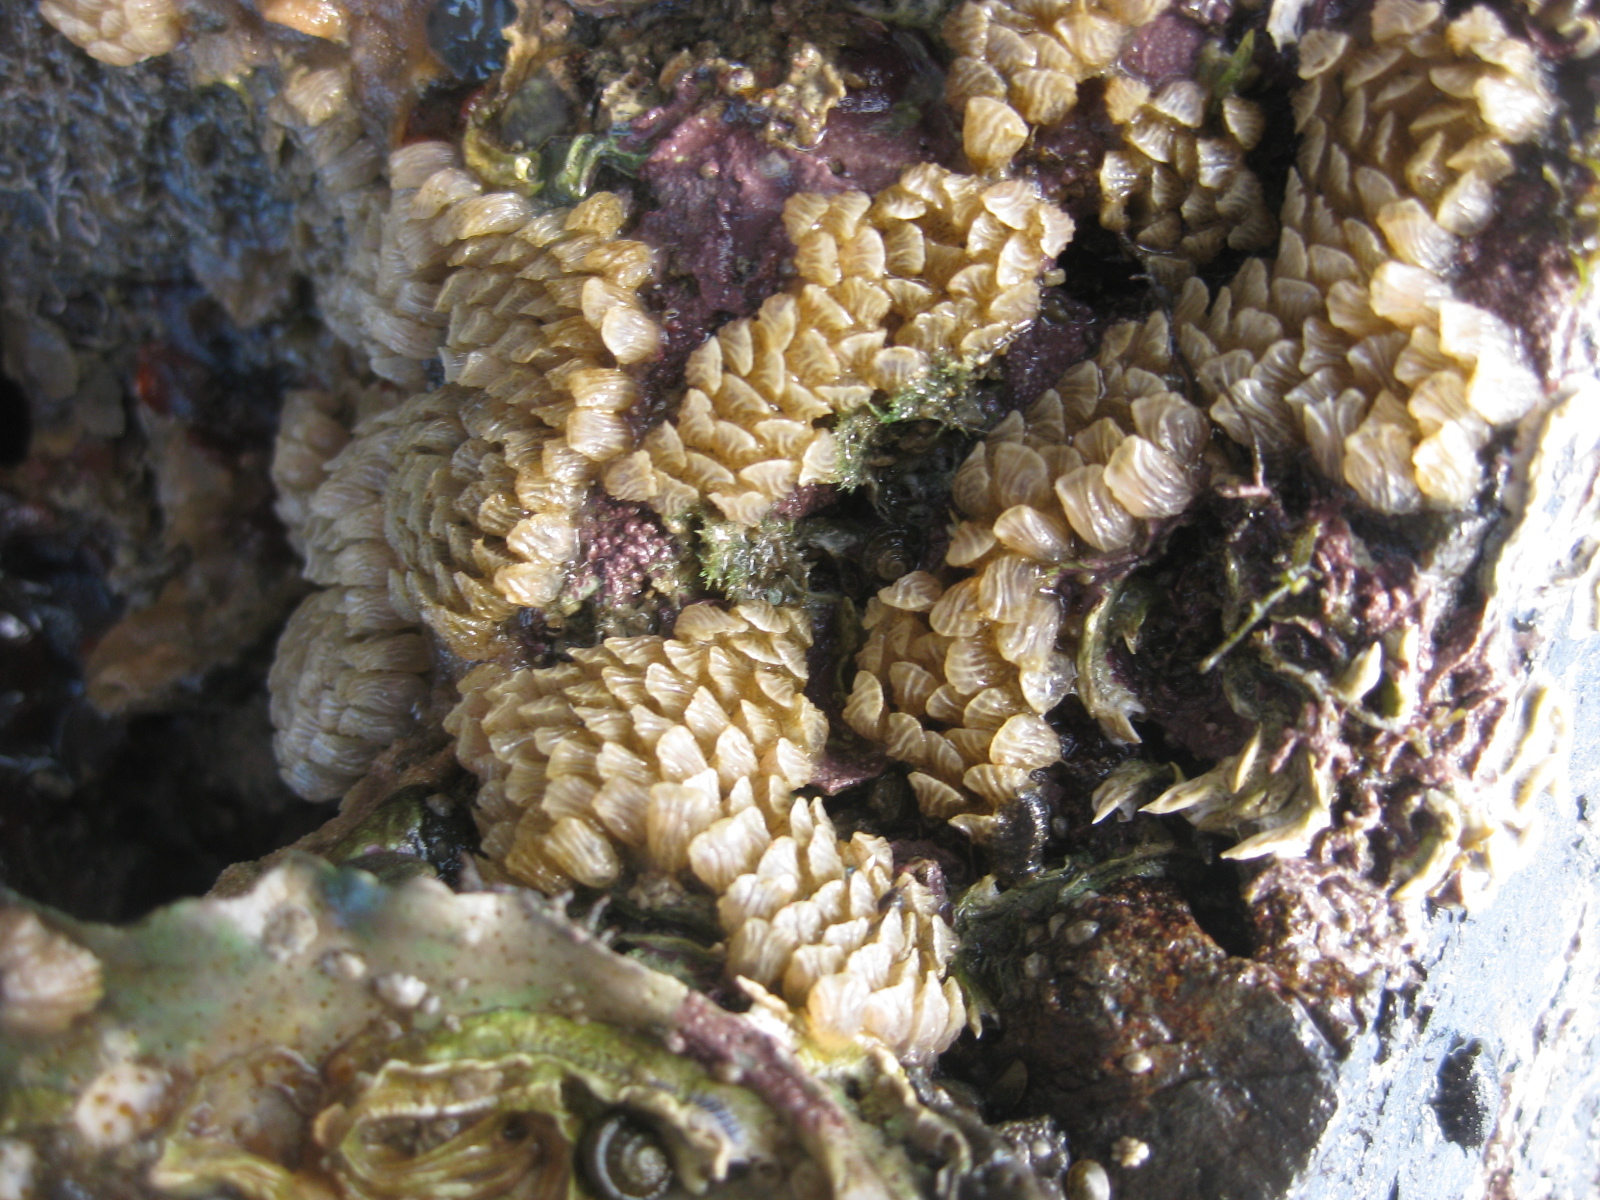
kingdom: Animalia
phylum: Mollusca
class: Gastropoda
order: Neogastropoda
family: Cominellidae
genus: Cominella
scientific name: Cominella virgata
